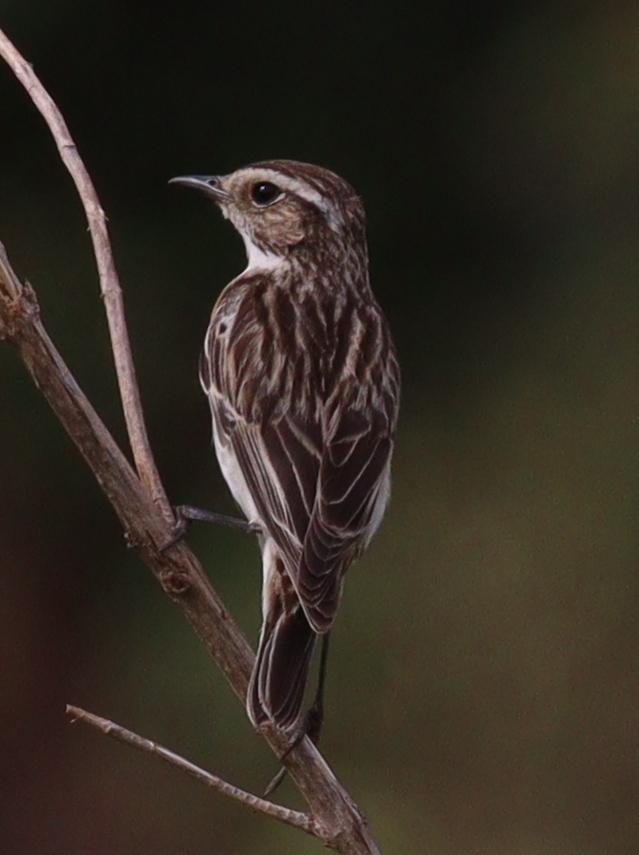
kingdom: Animalia
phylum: Chordata
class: Aves
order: Passeriformes
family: Muscicapidae
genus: Saxicola
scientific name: Saxicola rubetra
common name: Whinchat
